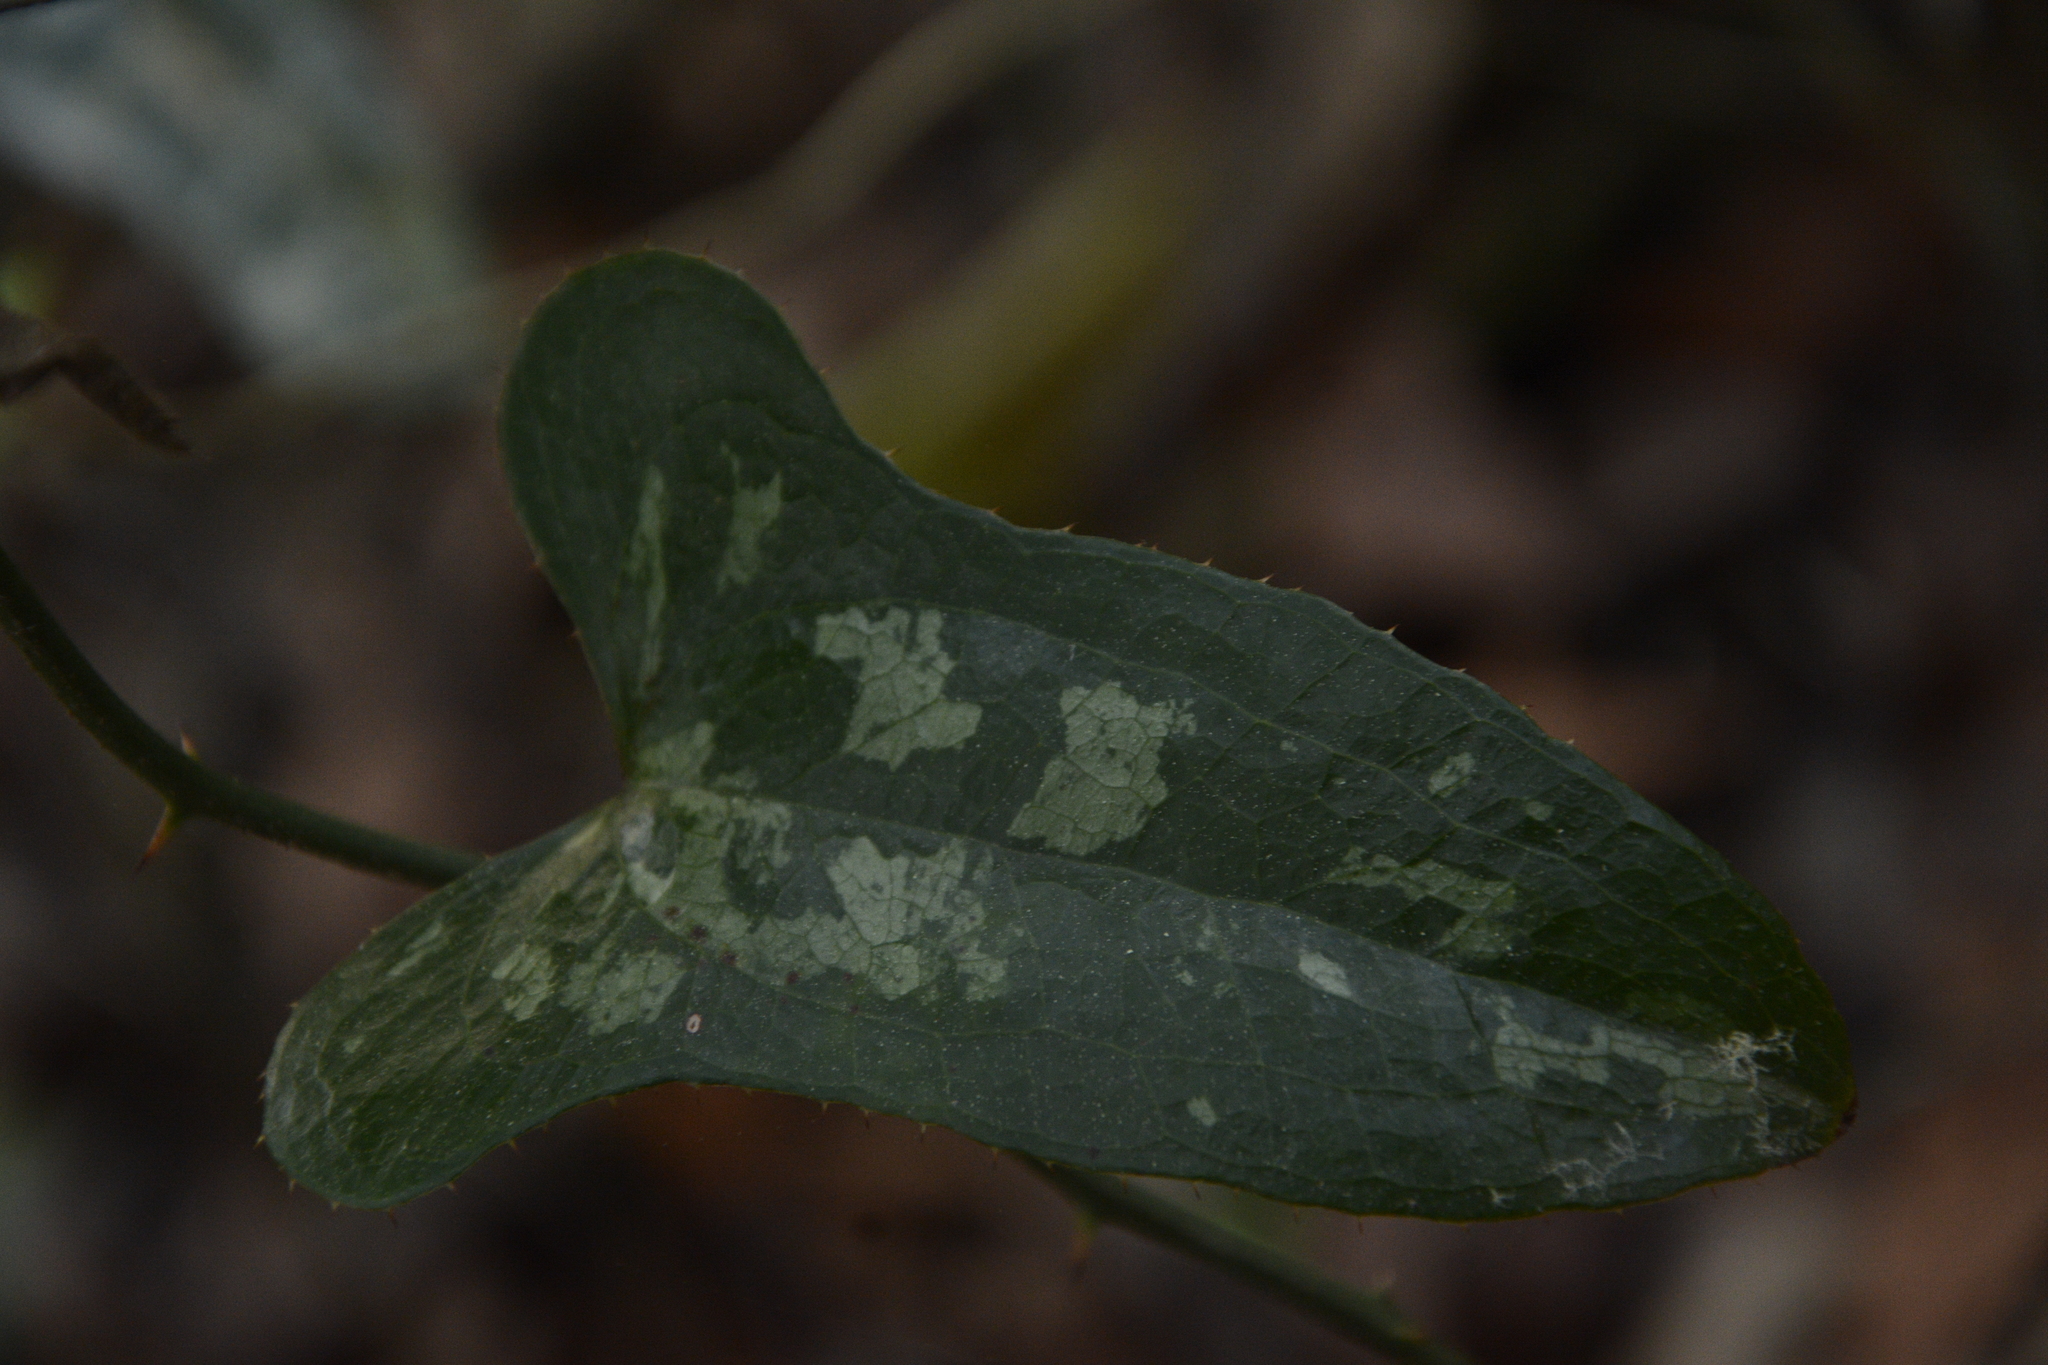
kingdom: Plantae
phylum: Tracheophyta
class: Liliopsida
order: Liliales
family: Smilacaceae
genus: Smilax
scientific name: Smilax bona-nox
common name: Catbrier
